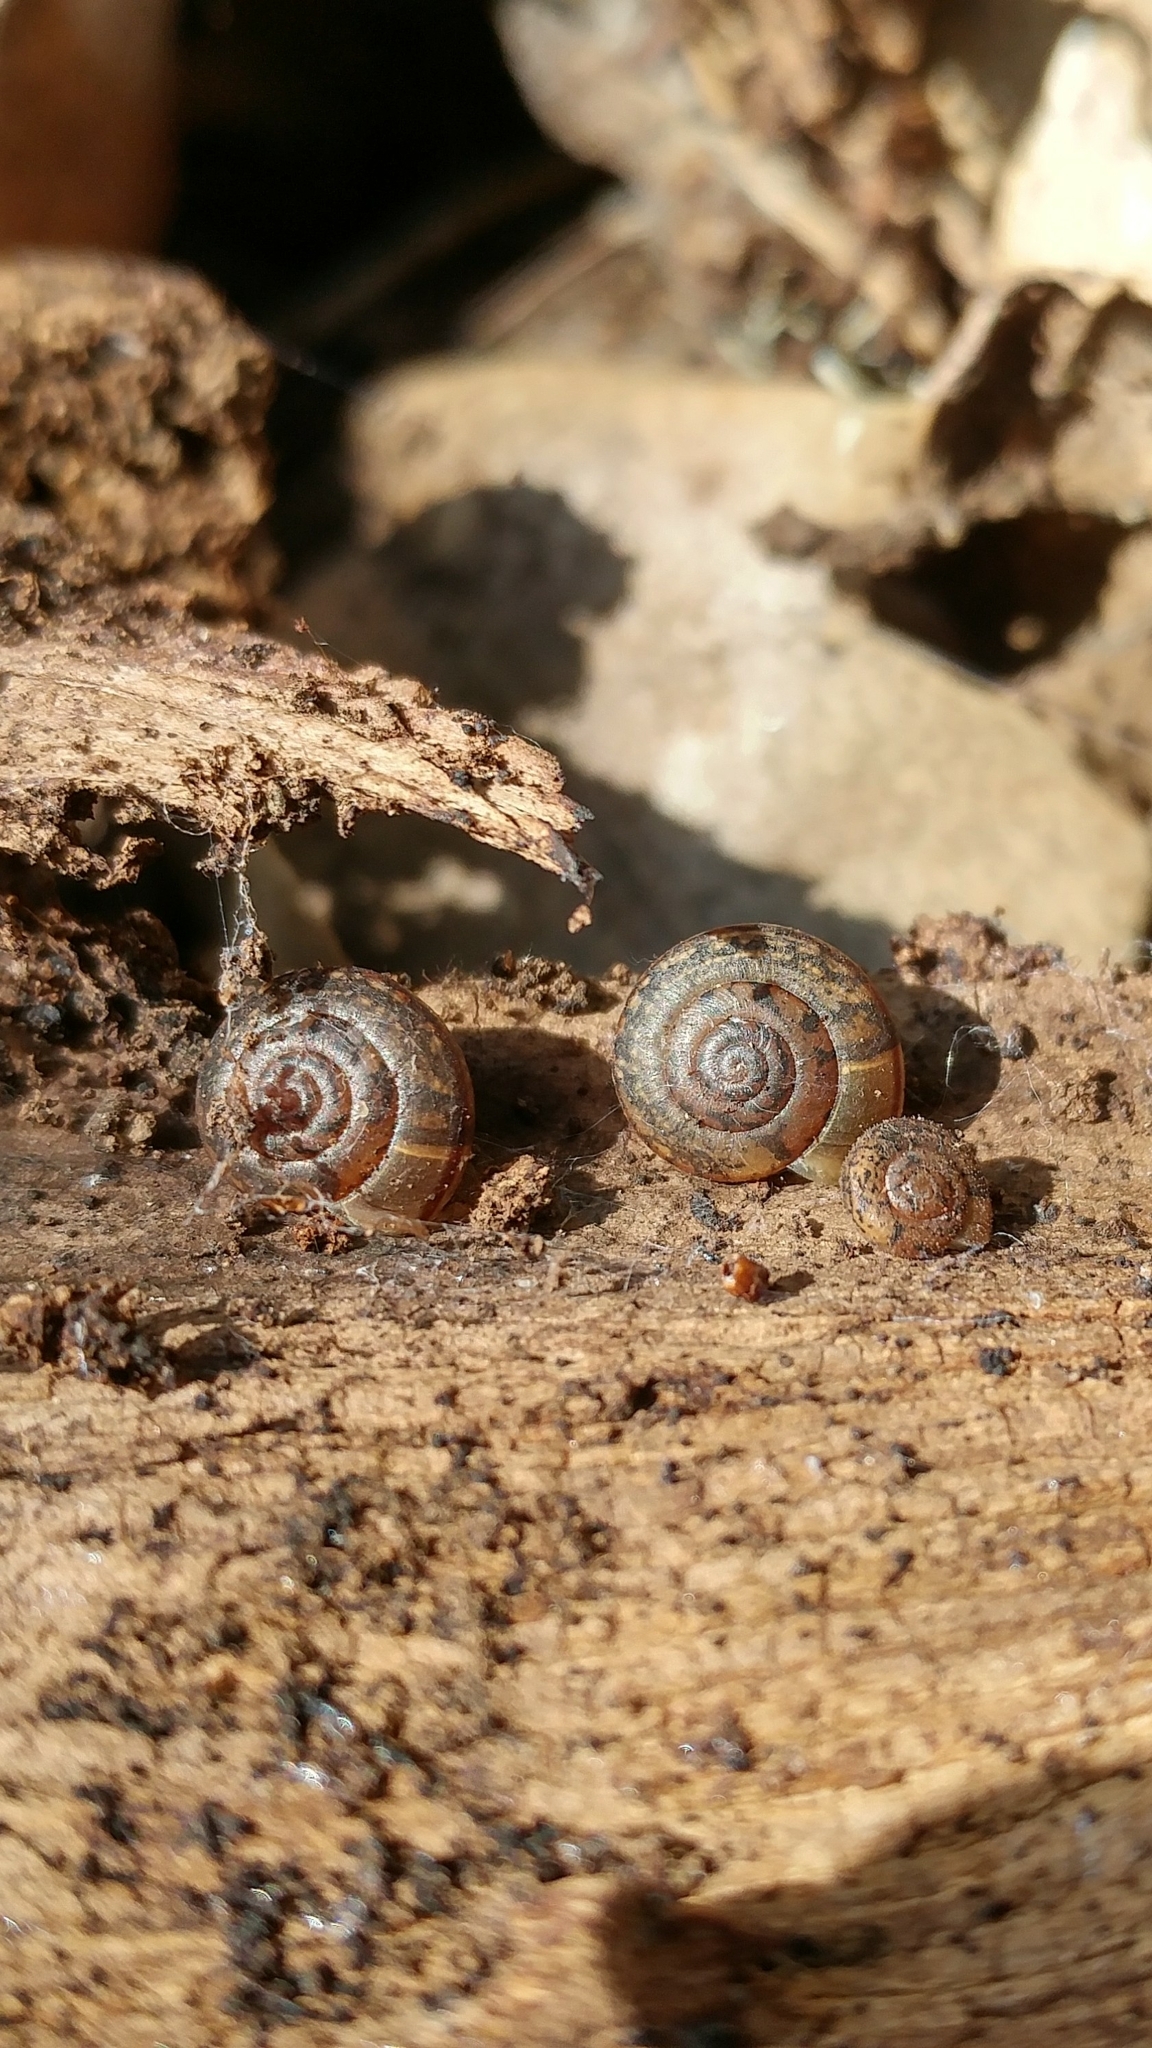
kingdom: Animalia
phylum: Mollusca
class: Gastropoda
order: Stylommatophora
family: Xanthonychidae
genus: Micrarionta
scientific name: Micrarionta gabbii
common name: Gabb's snail
